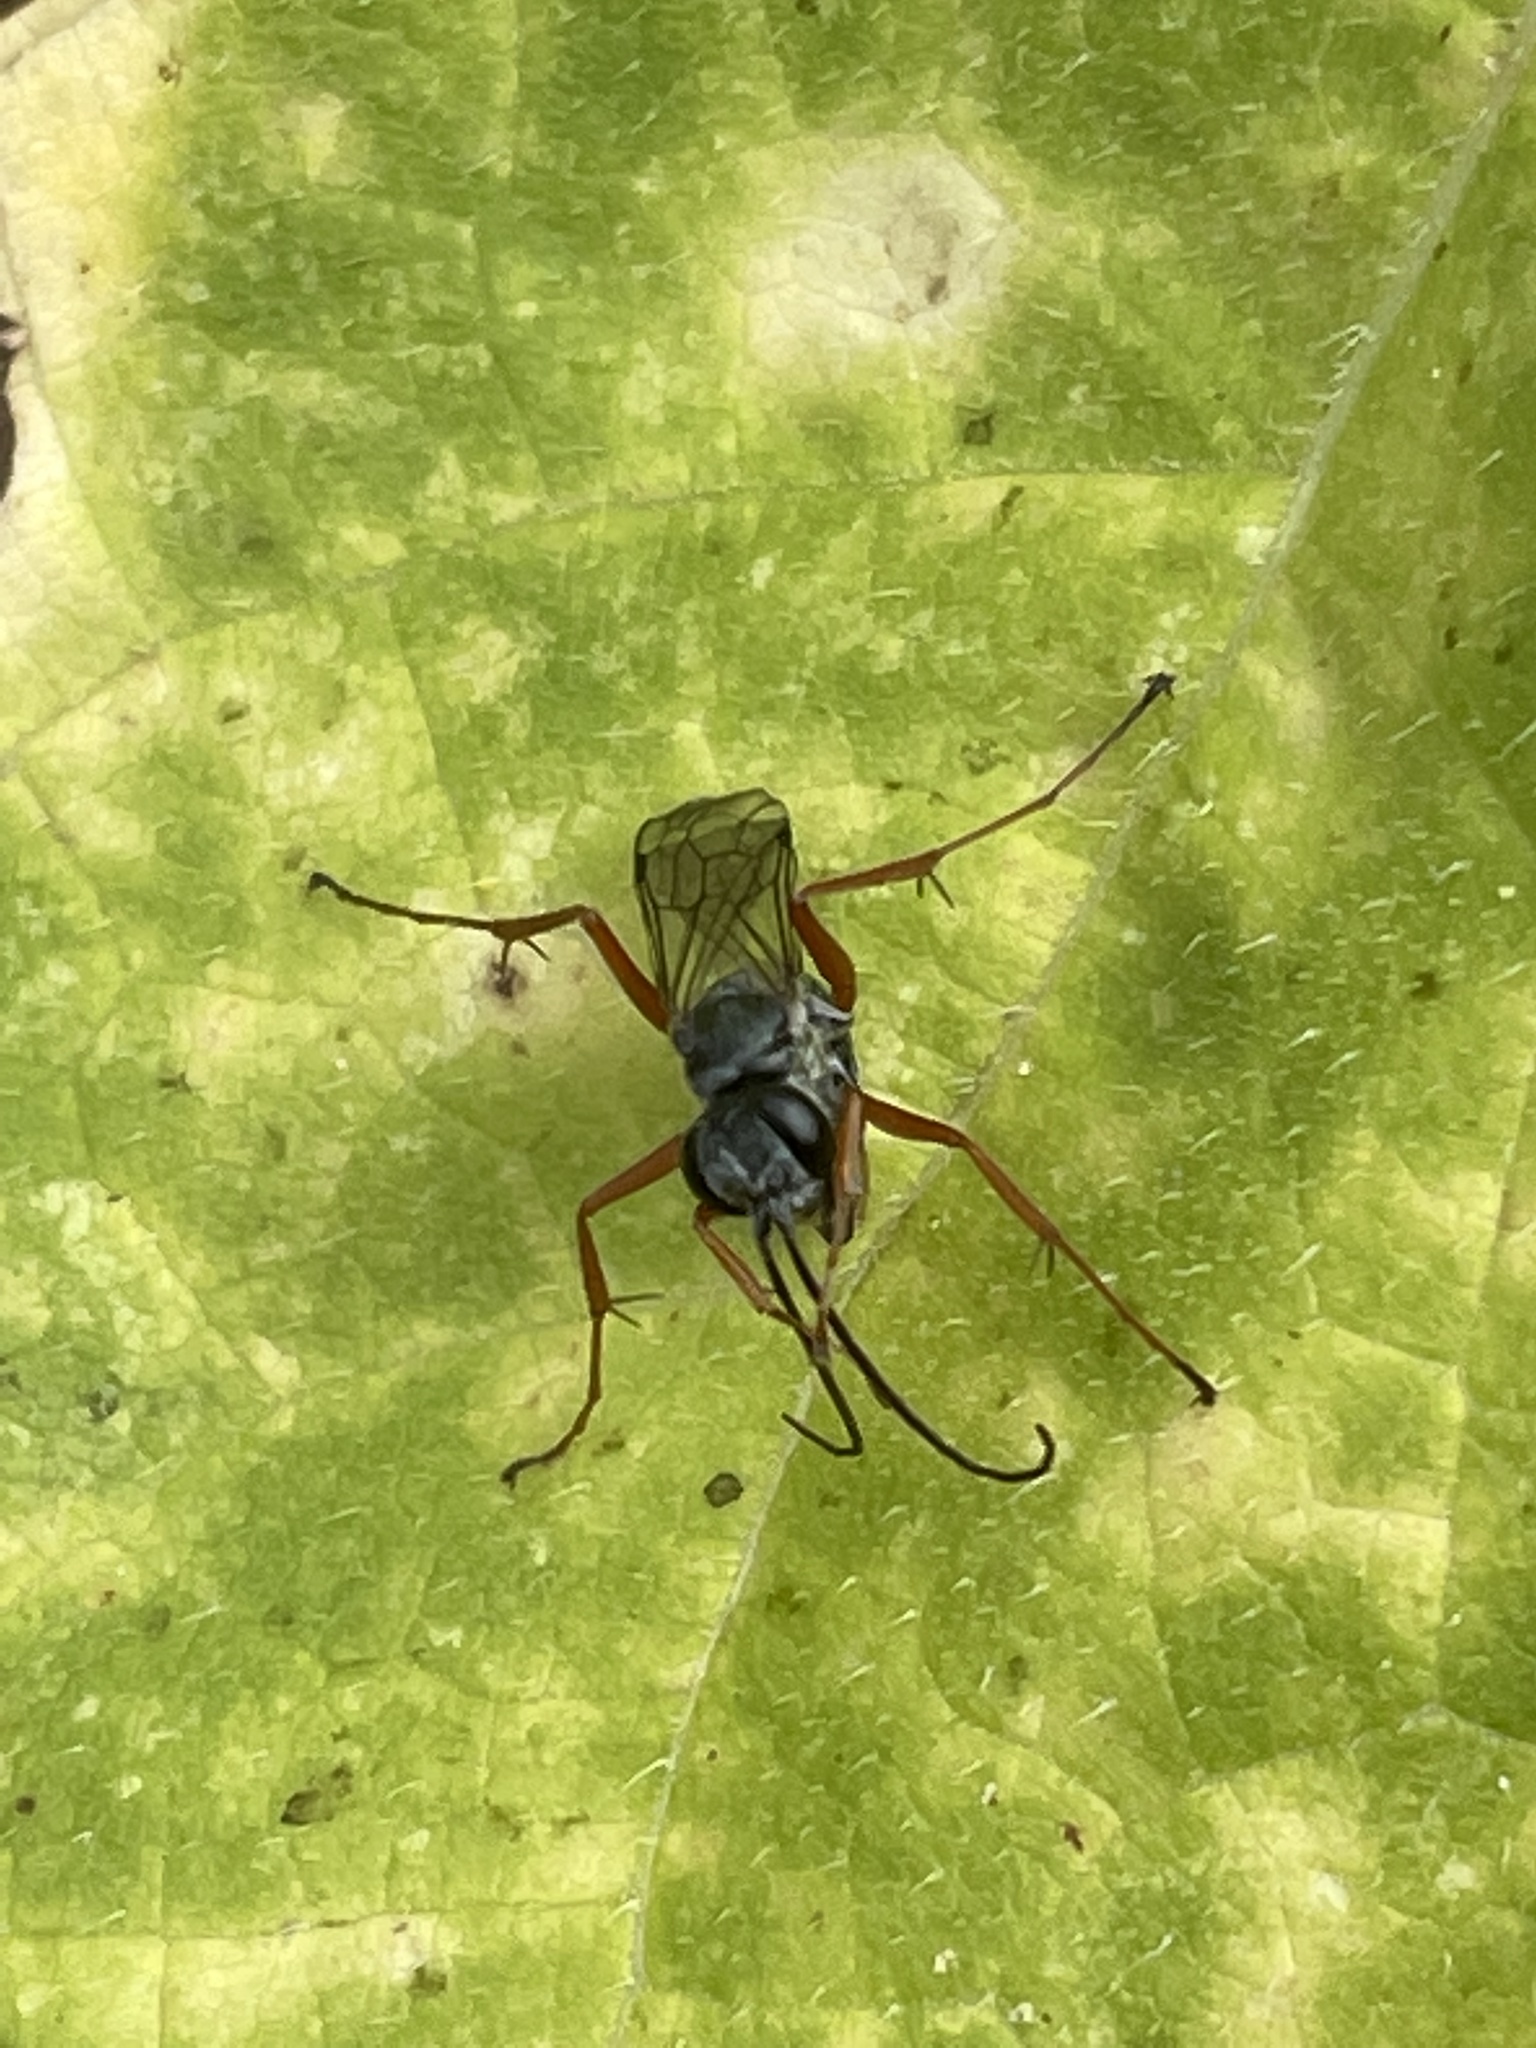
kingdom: Animalia
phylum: Arthropoda
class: Insecta
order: Hymenoptera
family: Pompilidae
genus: Auplopus
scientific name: Auplopus mellipes
